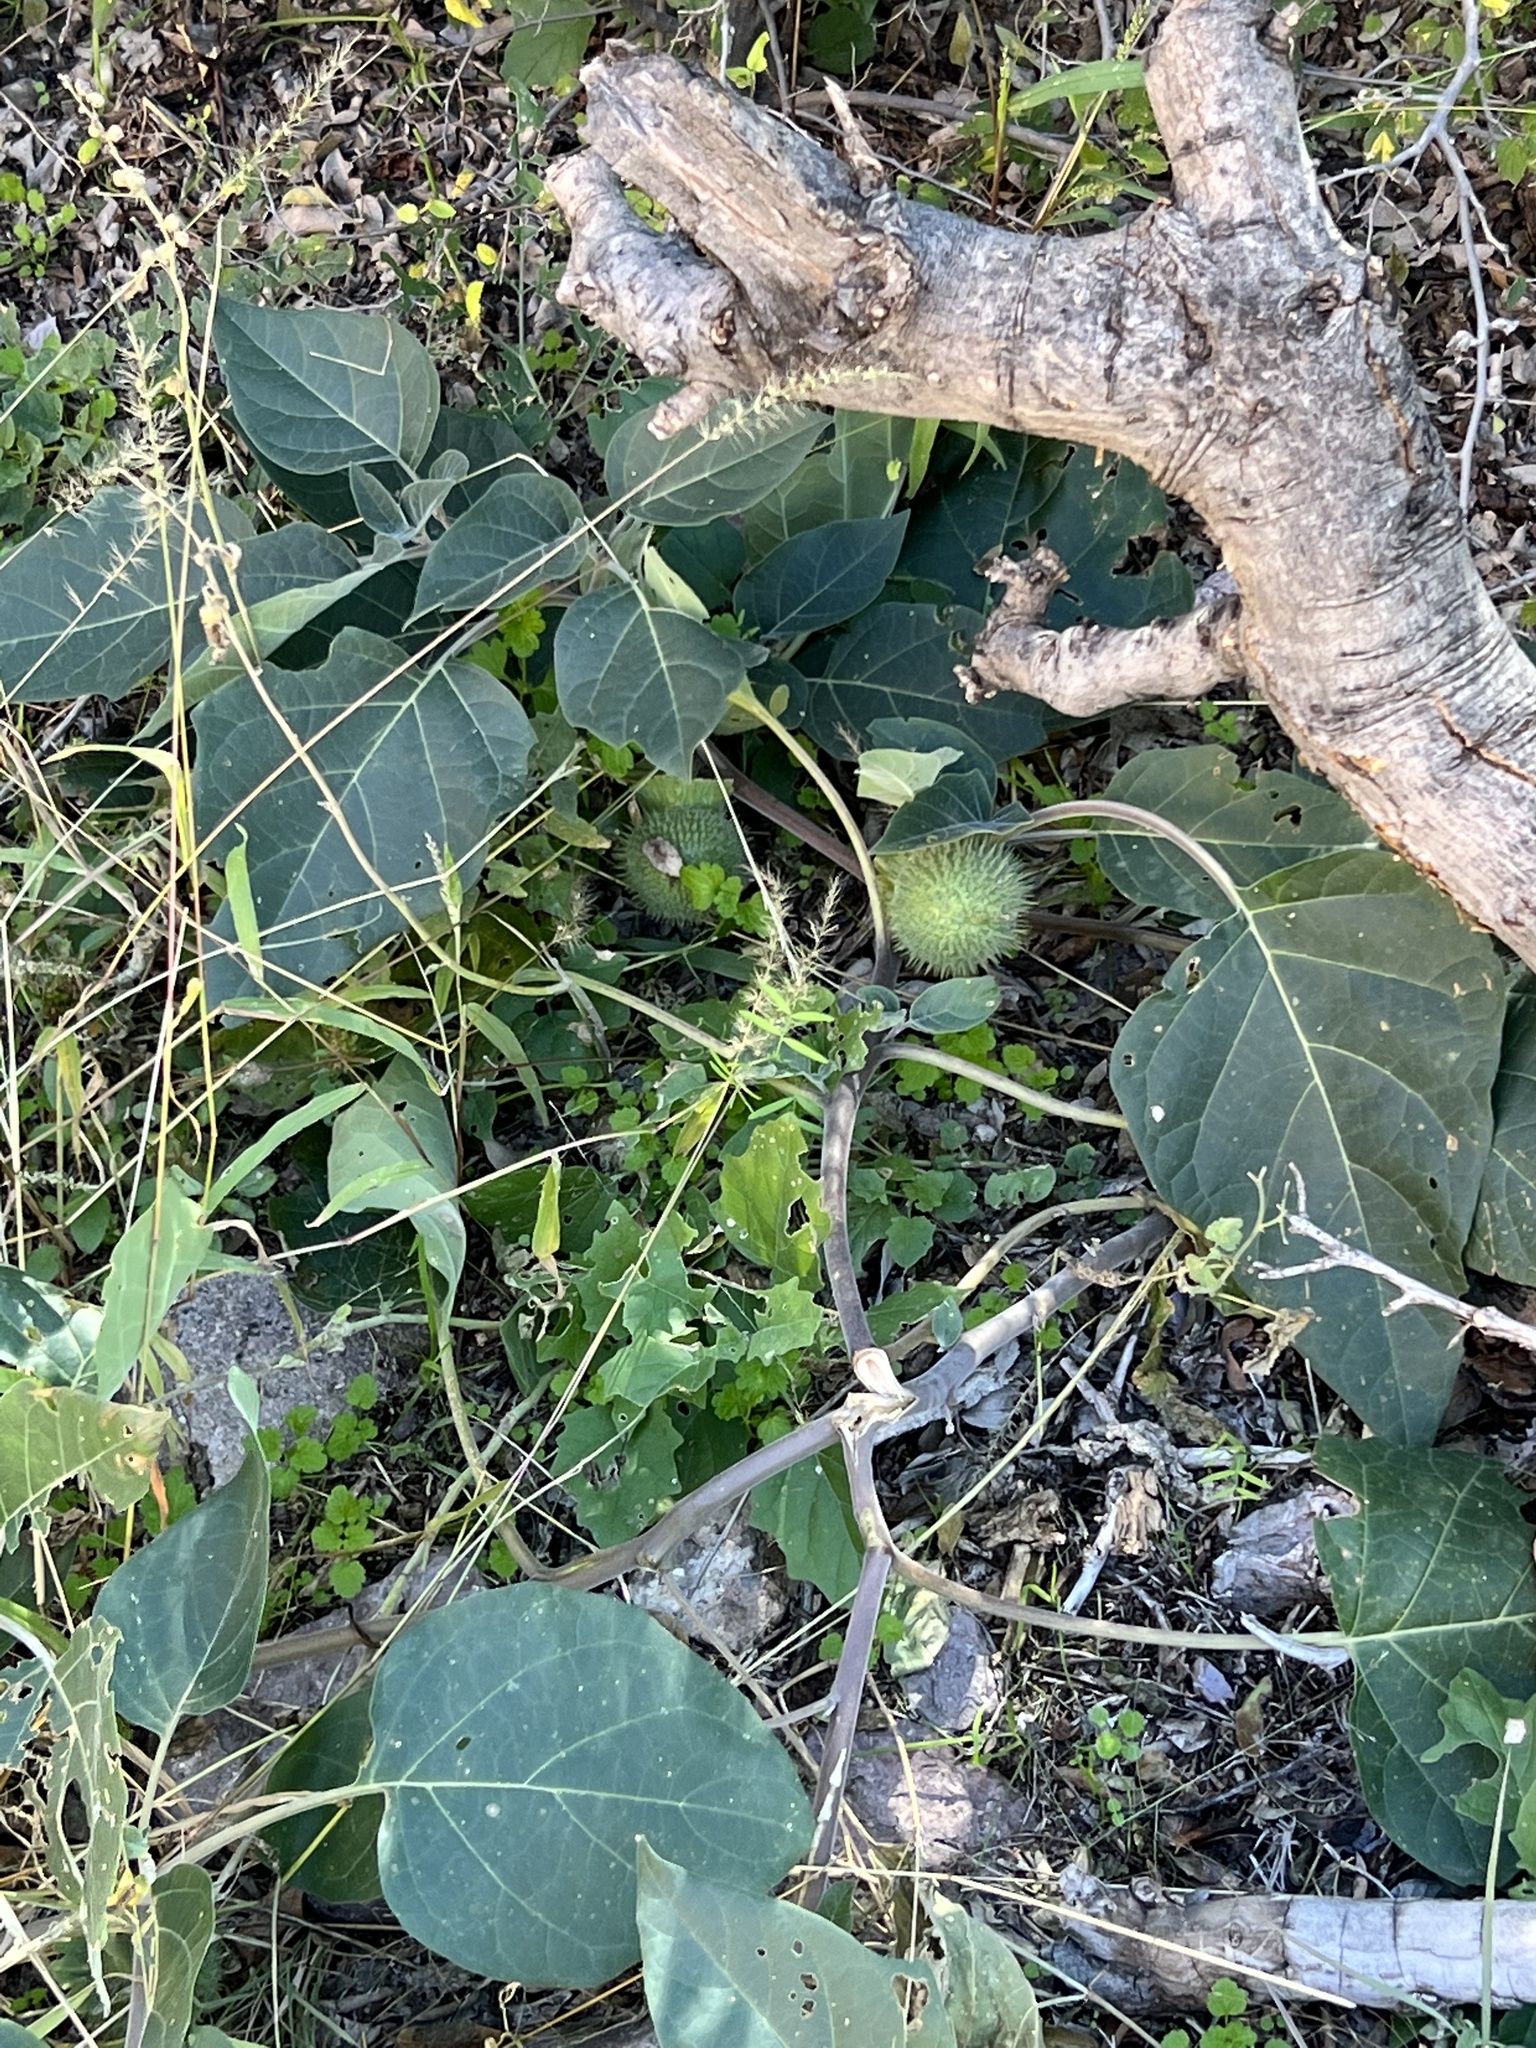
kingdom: Plantae
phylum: Tracheophyta
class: Magnoliopsida
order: Solanales
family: Solanaceae
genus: Datura
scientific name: Datura wrightii
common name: Sacred thorn-apple
